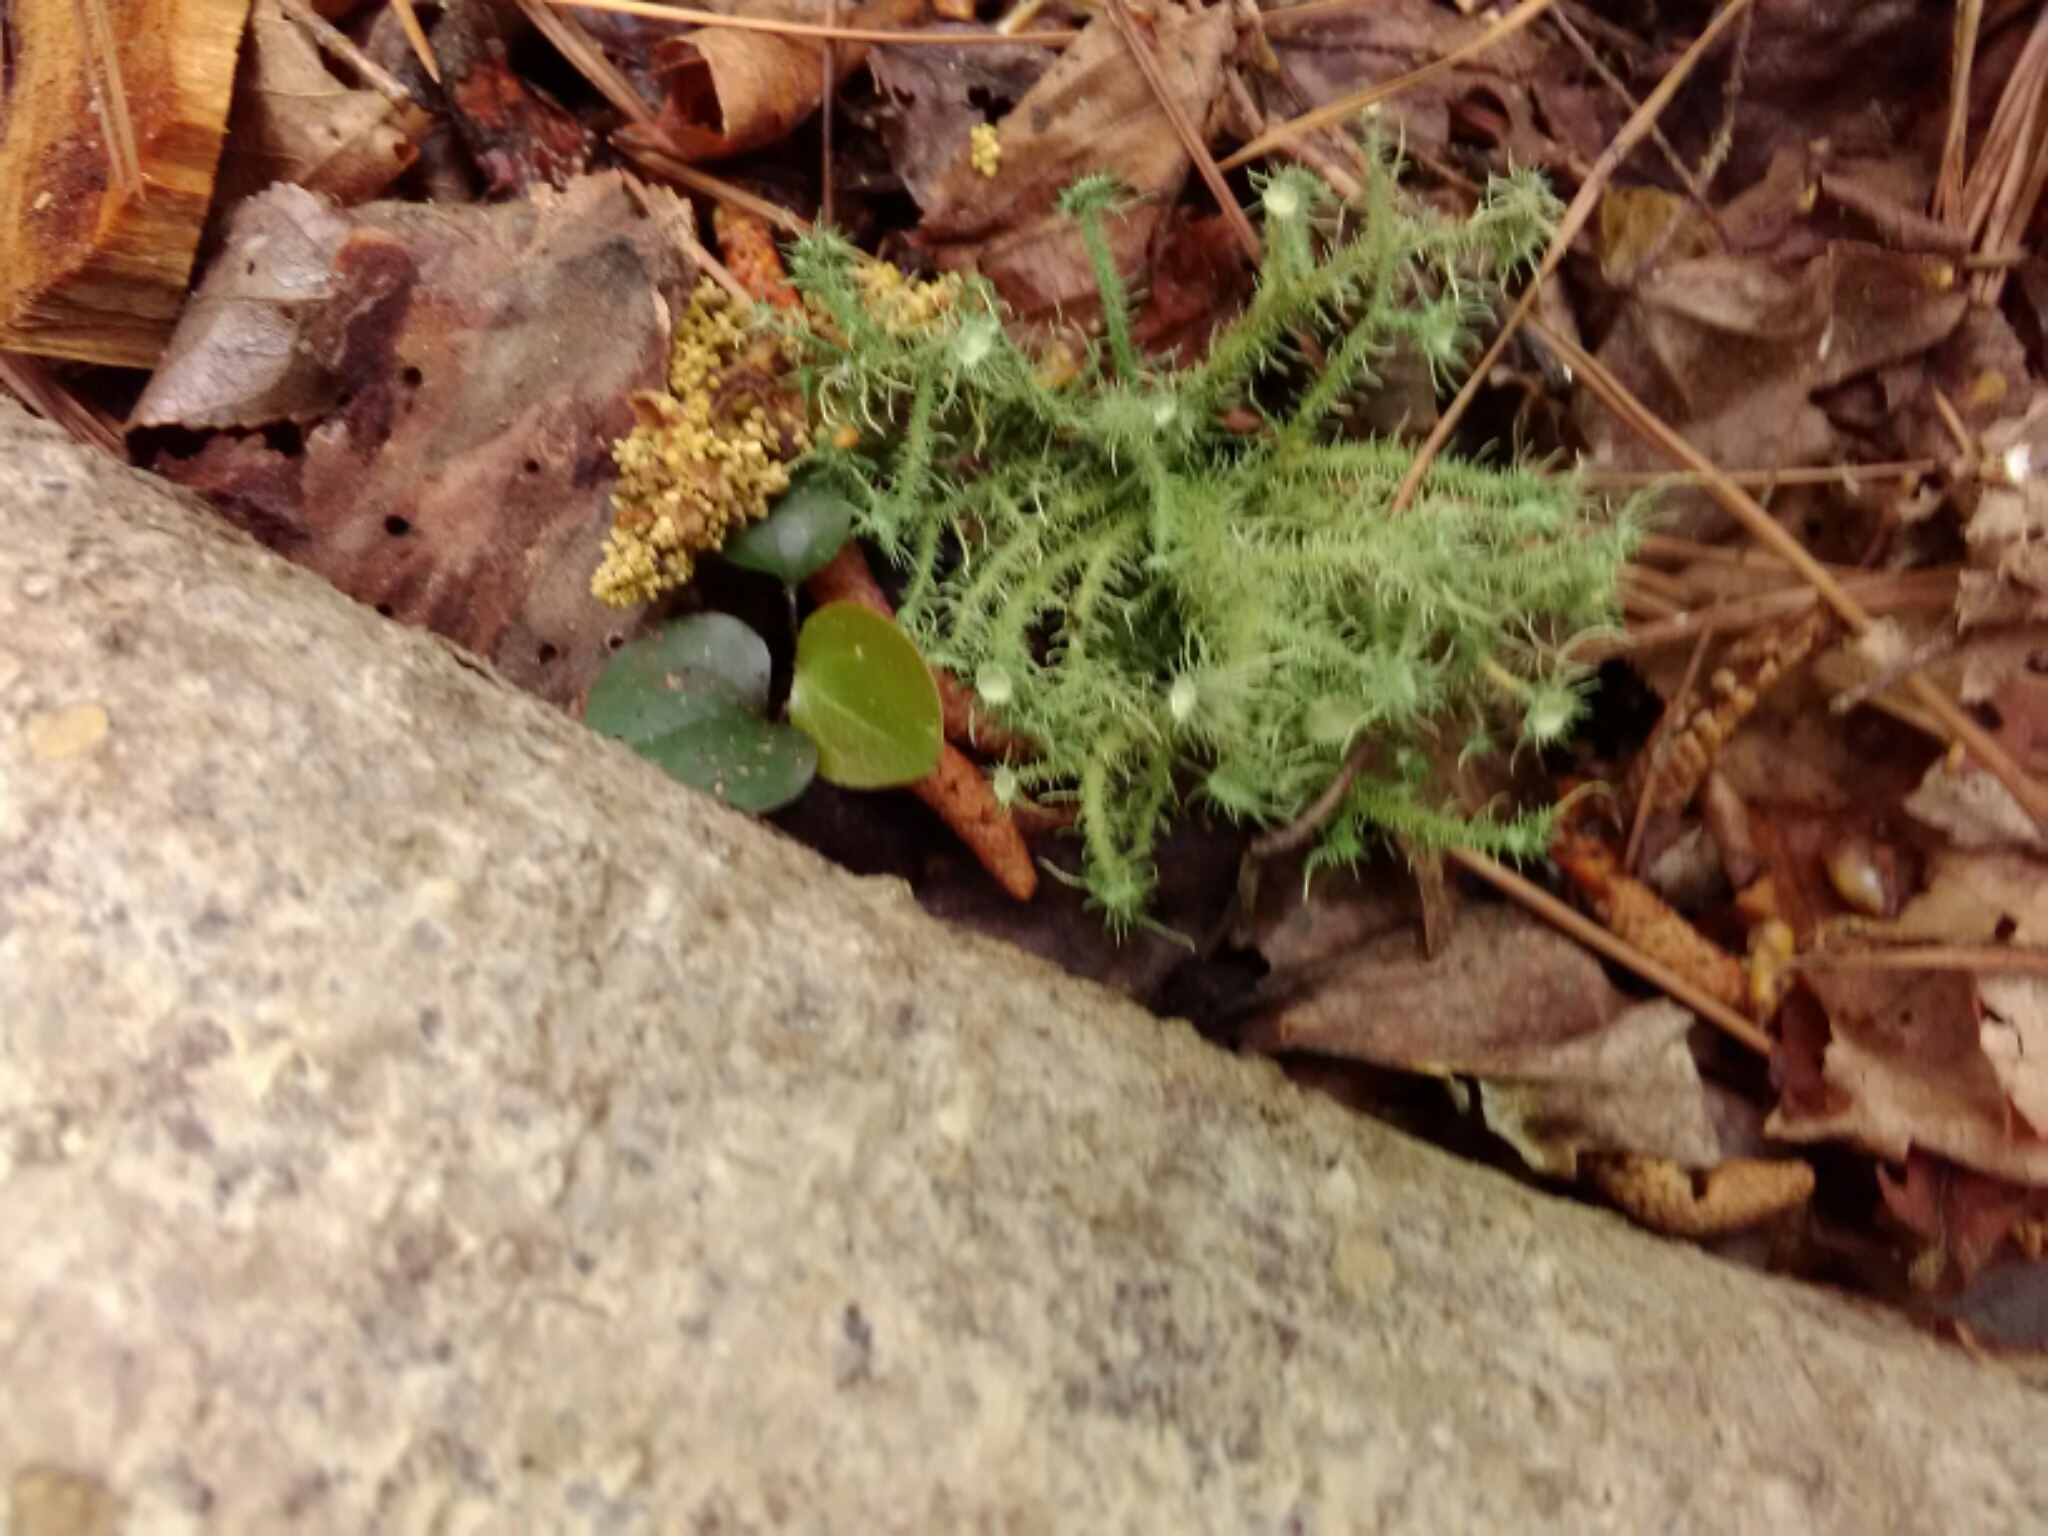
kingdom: Fungi
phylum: Ascomycota
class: Lecanoromycetes
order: Lecanorales
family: Parmeliaceae
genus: Usnea
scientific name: Usnea strigosa
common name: Bushy beard lichen
